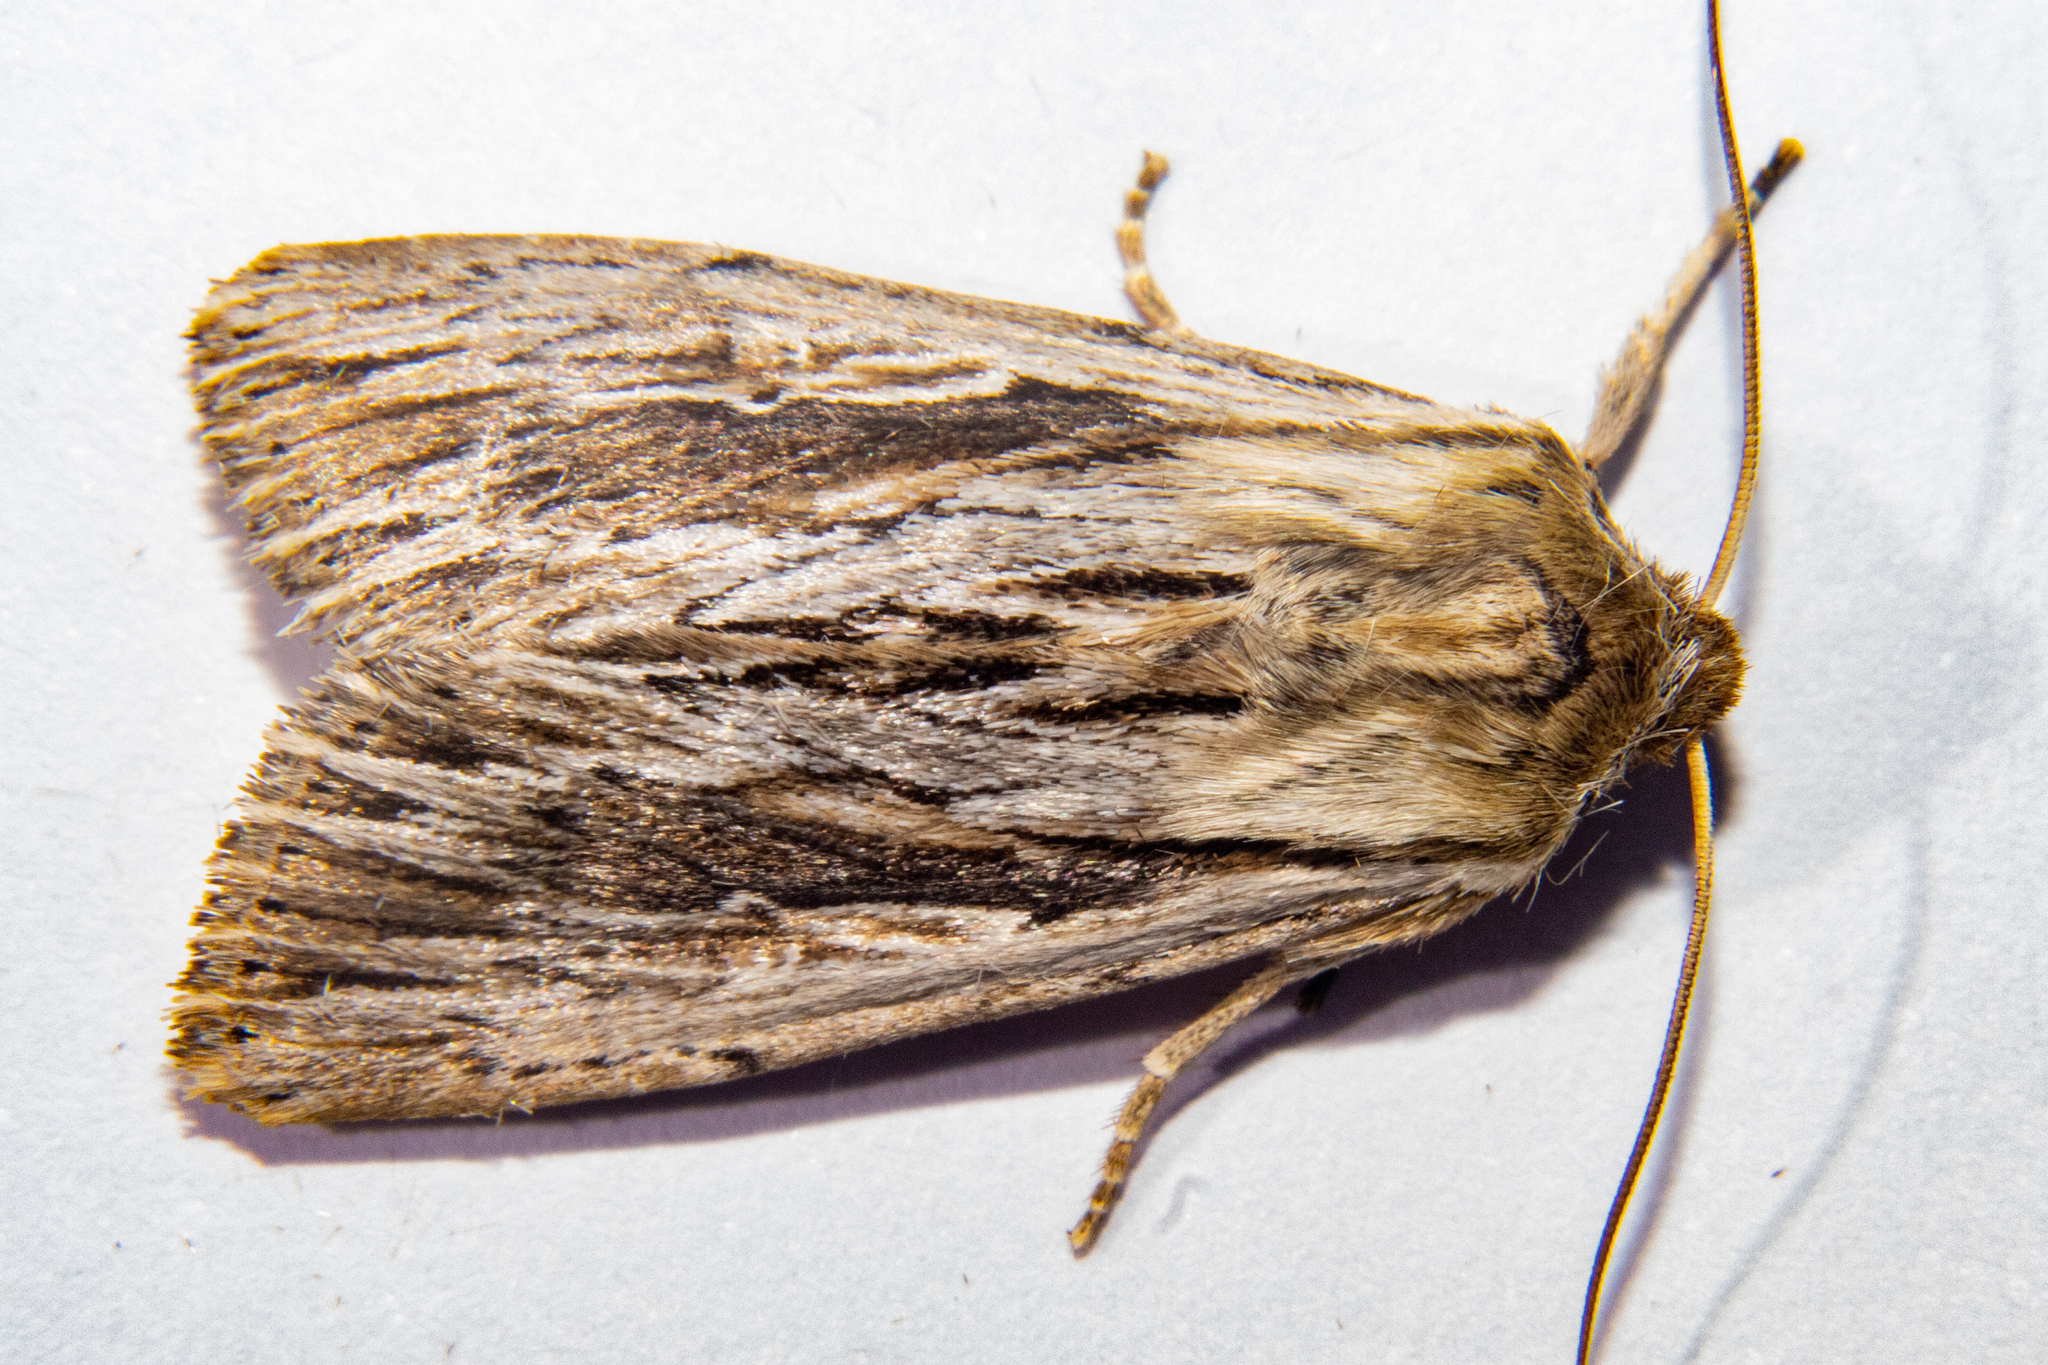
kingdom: Animalia
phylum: Arthropoda
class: Insecta
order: Lepidoptera
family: Noctuidae
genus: Persectania
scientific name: Persectania aversa
